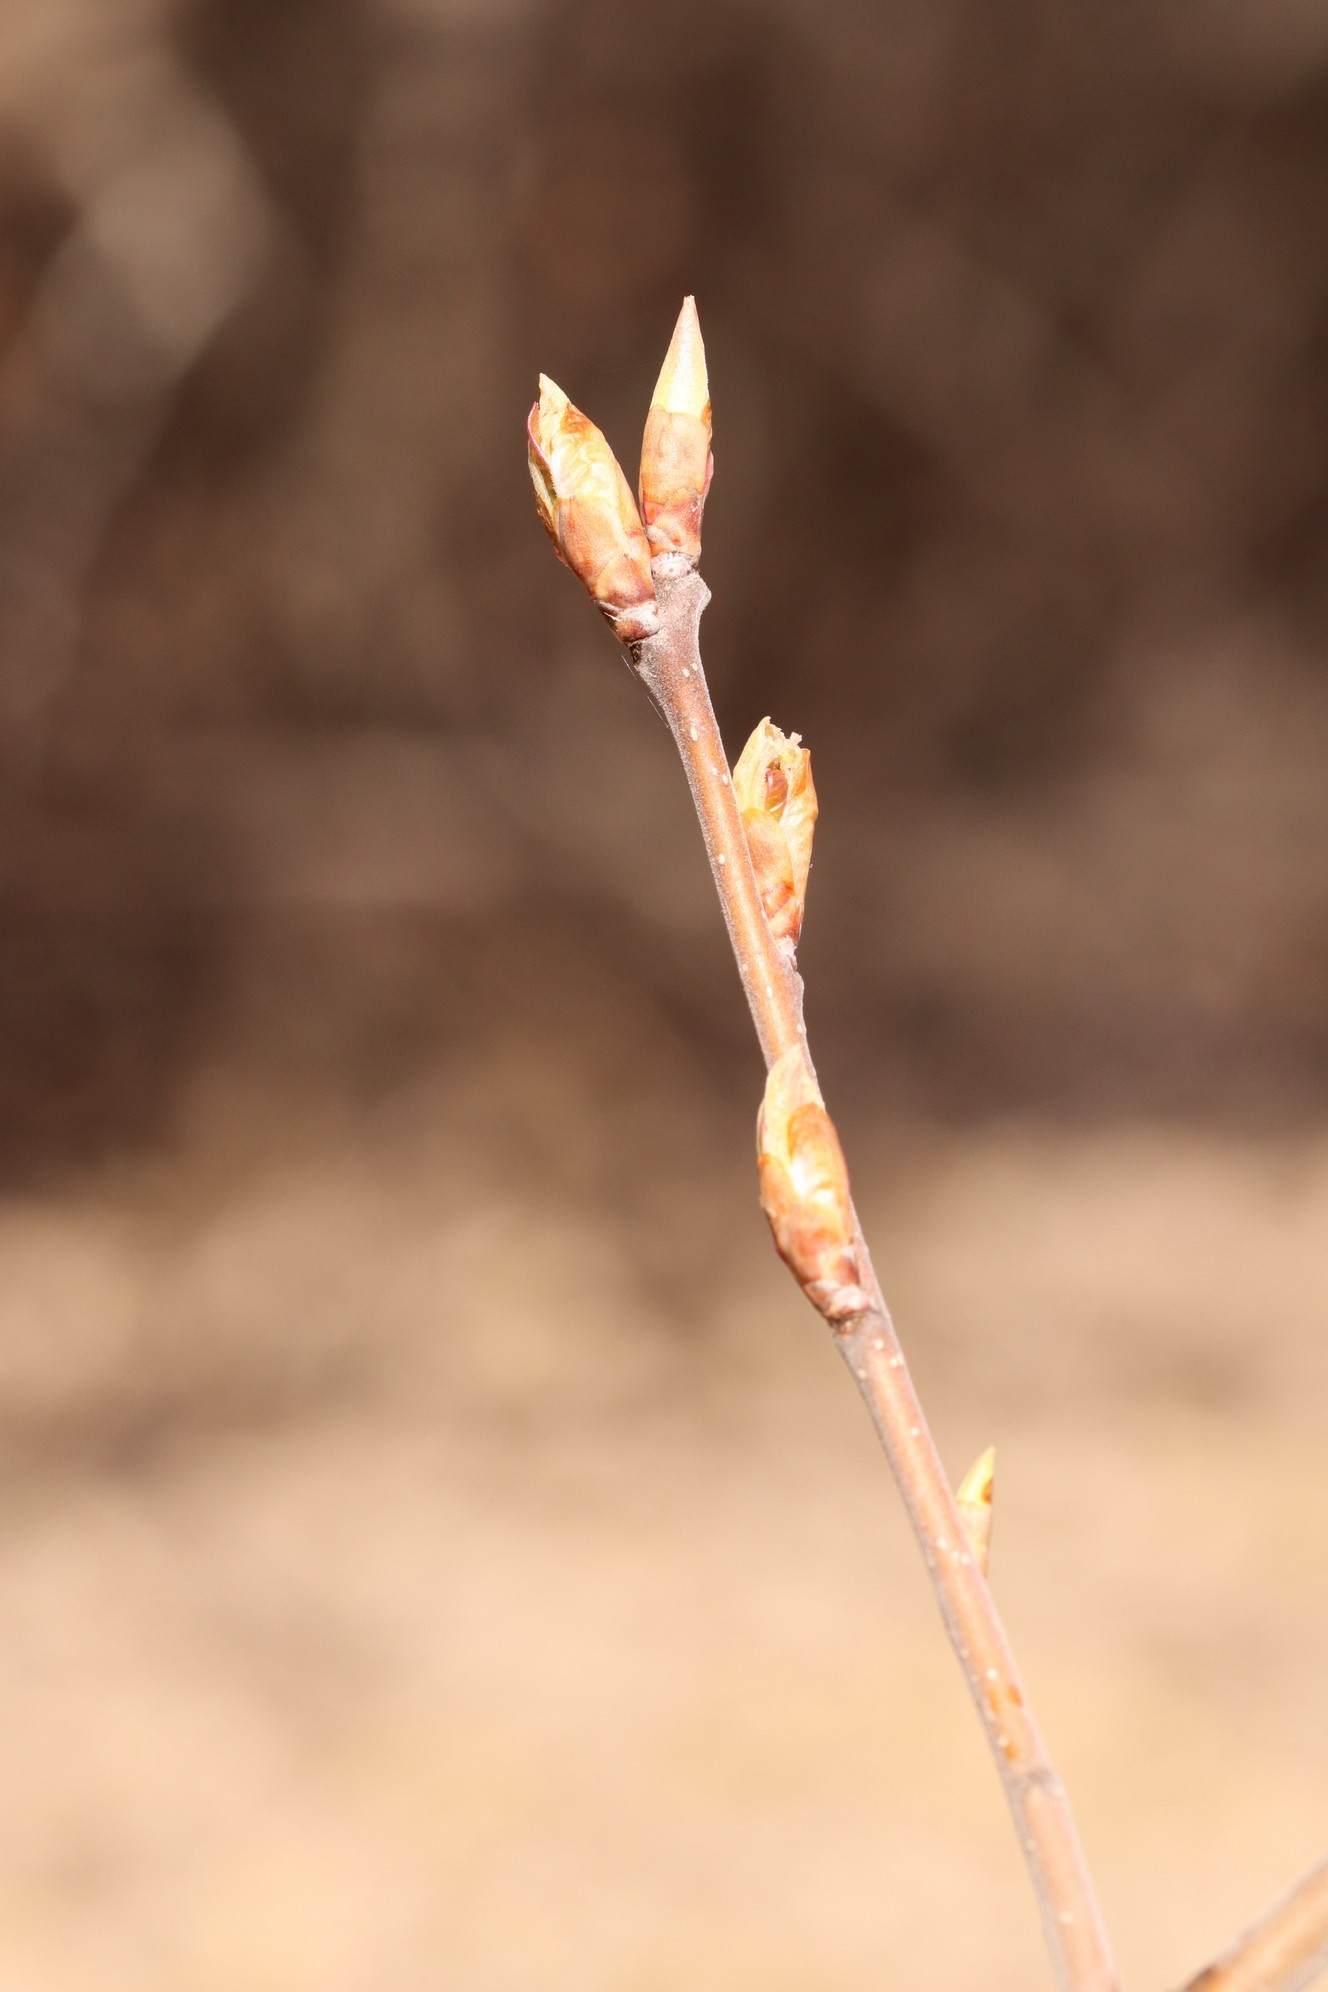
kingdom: Plantae
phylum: Tracheophyta
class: Magnoliopsida
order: Rosales
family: Rosaceae
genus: Prunus
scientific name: Prunus padus
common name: Bird cherry
